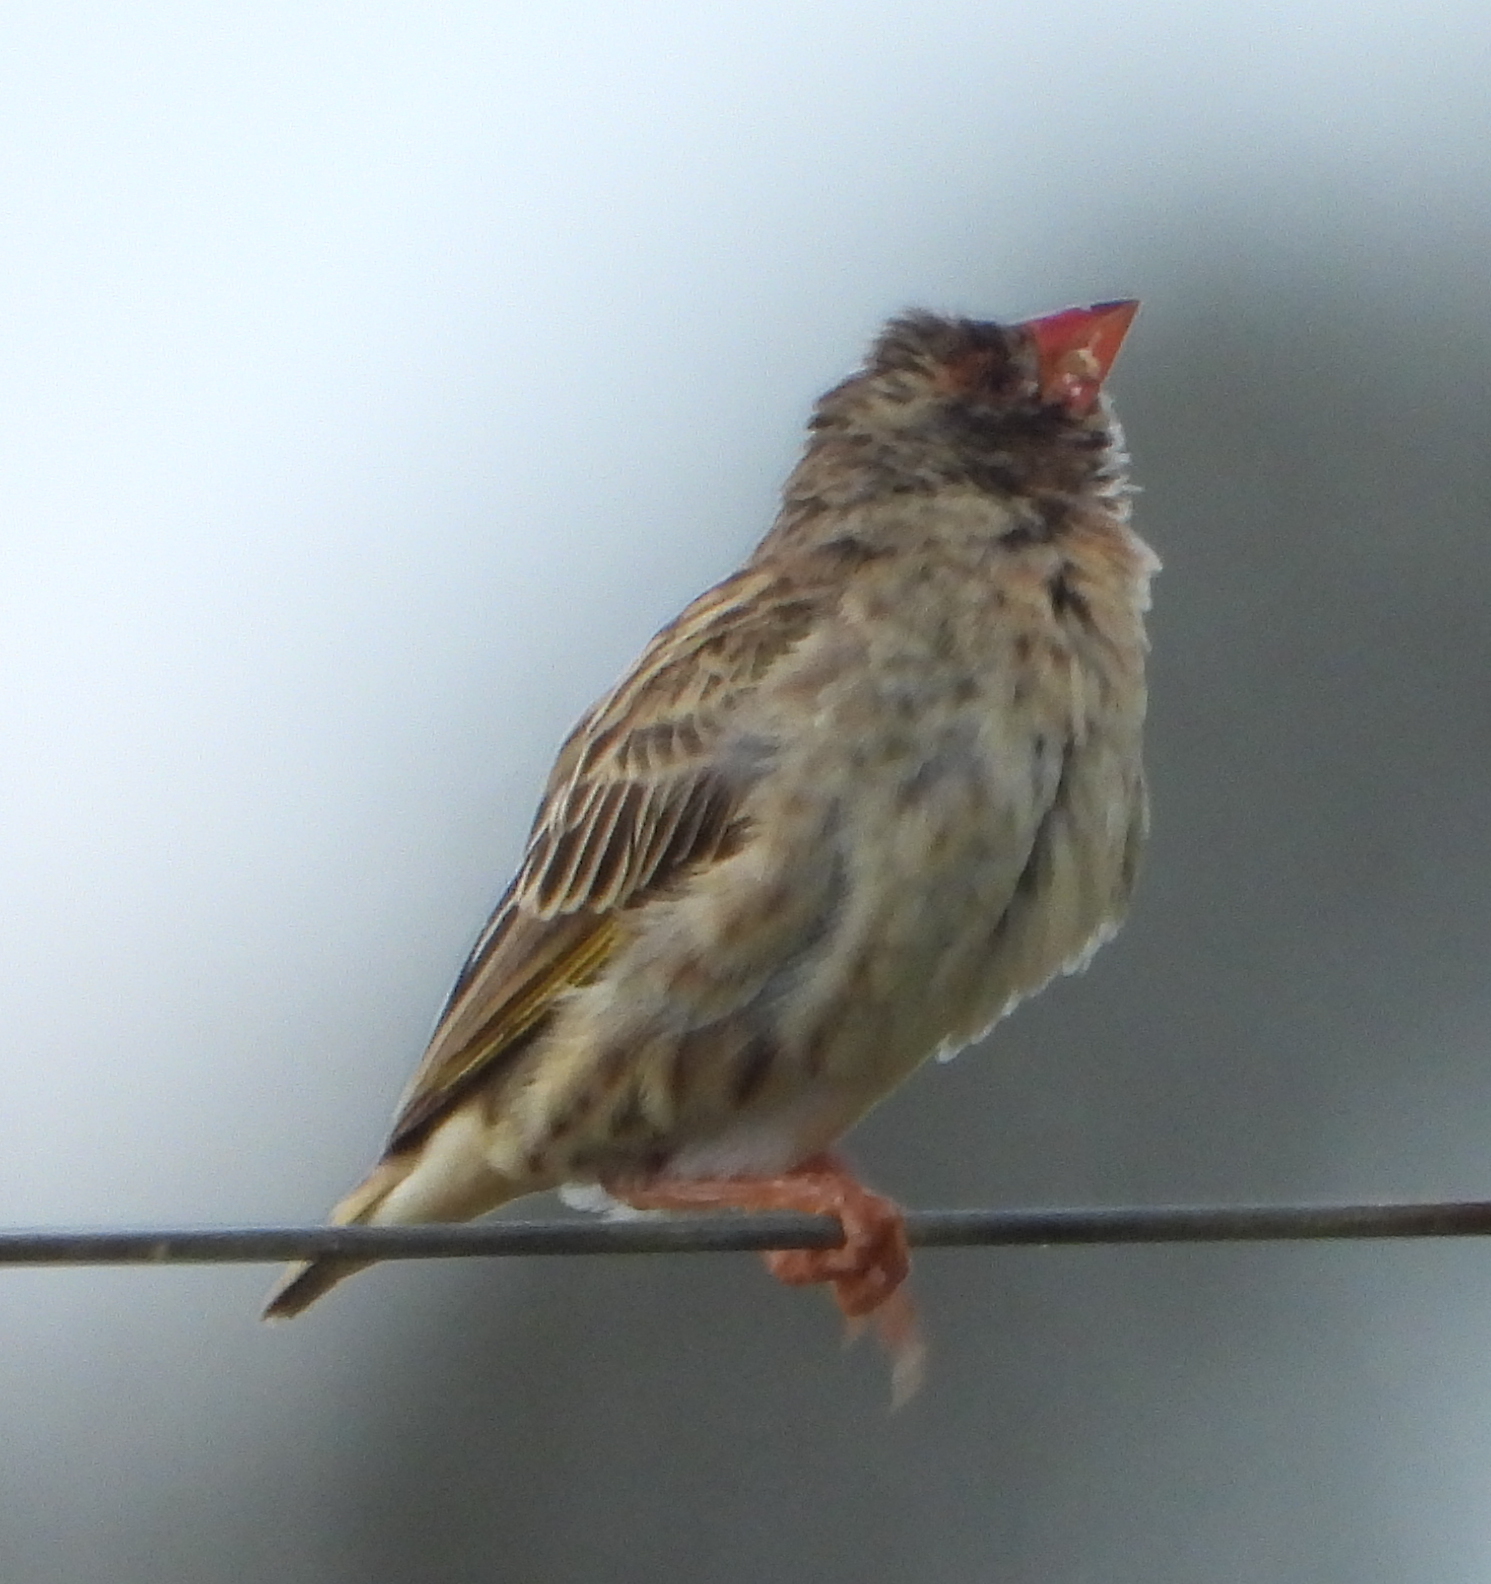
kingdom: Animalia
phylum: Chordata
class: Aves
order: Passeriformes
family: Ploceidae
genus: Quelea
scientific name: Quelea quelea
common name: Red-billed quelea
